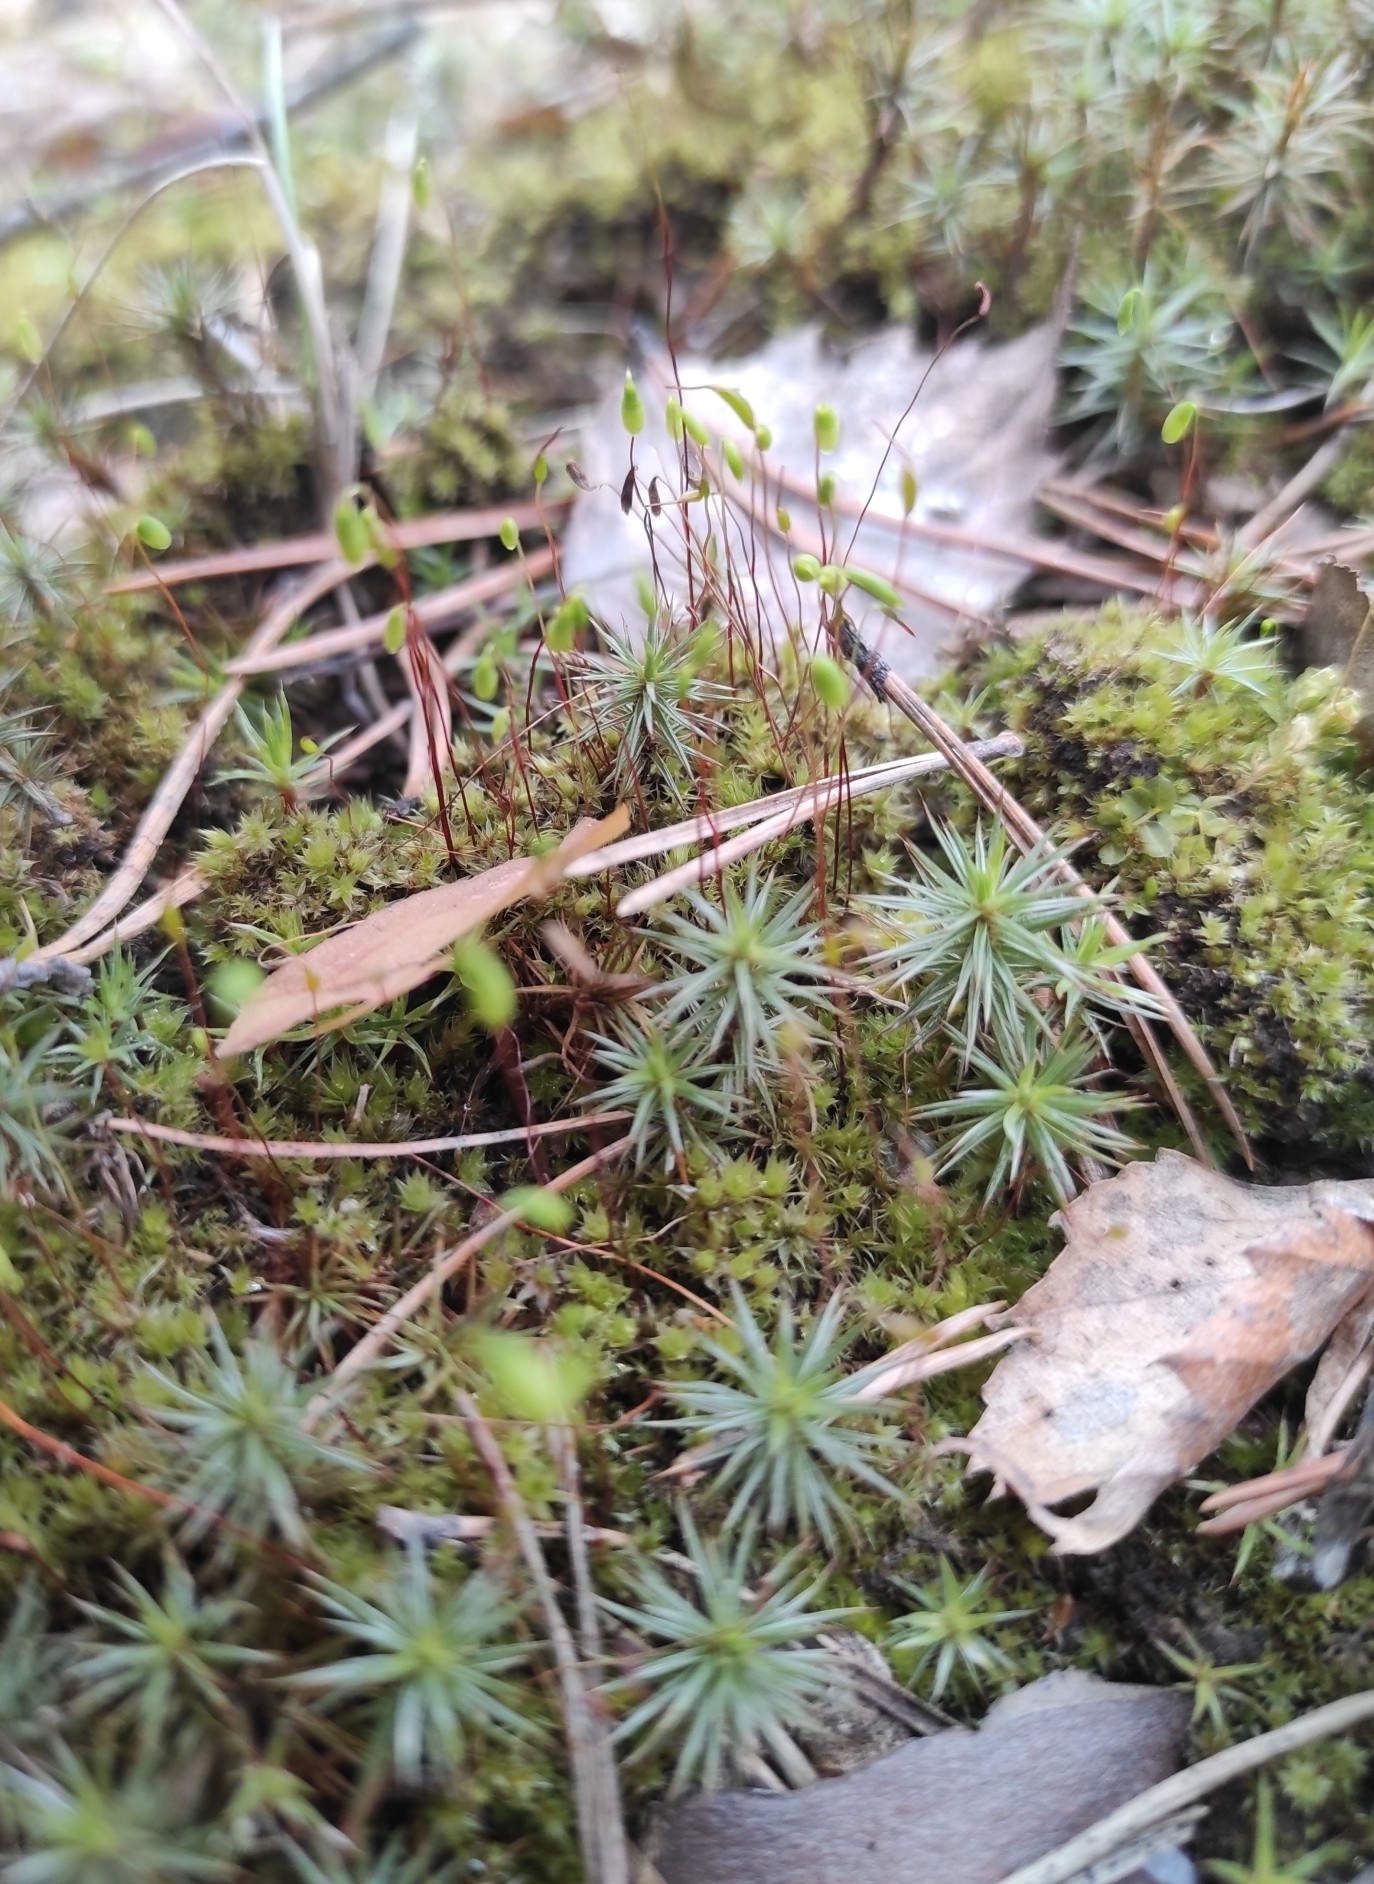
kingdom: Plantae
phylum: Bryophyta
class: Polytrichopsida
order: Polytrichales
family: Polytrichaceae
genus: Polytrichum
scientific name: Polytrichum juniperinum
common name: Juniper haircap moss
